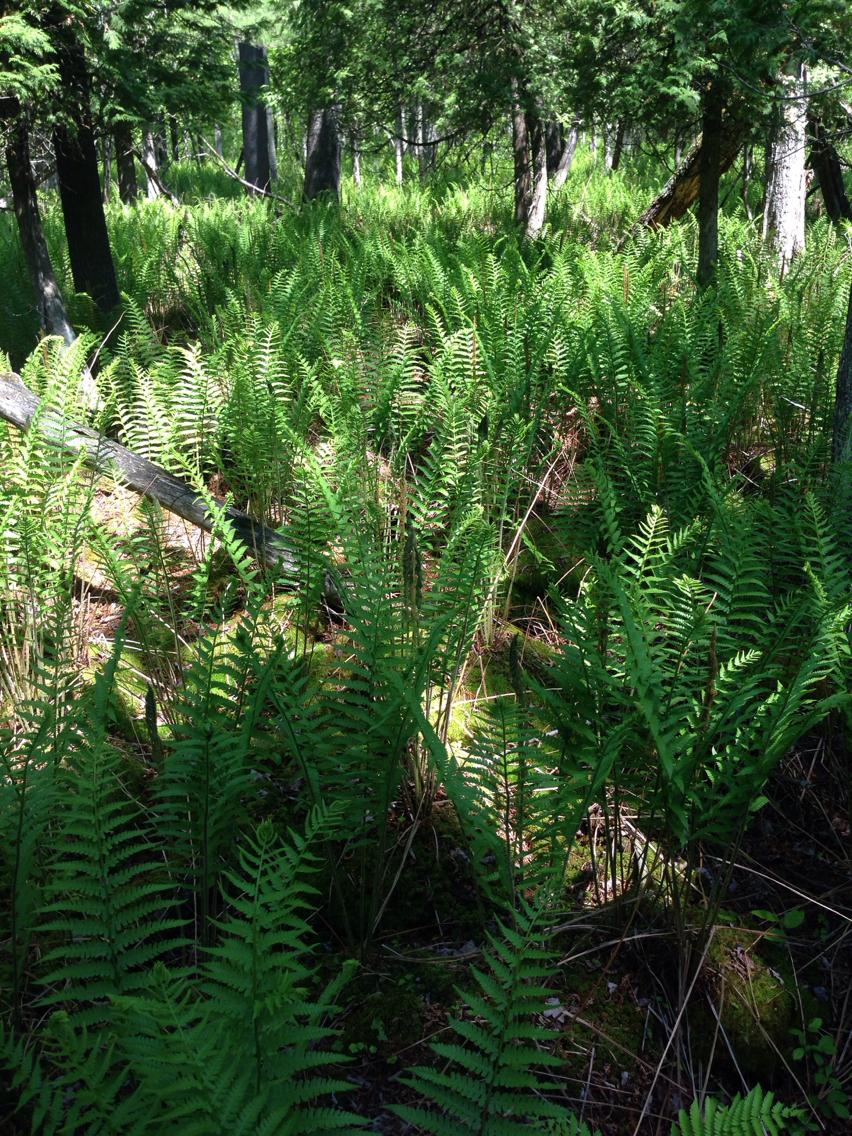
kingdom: Plantae
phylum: Tracheophyta
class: Polypodiopsida
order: Osmundales
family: Osmundaceae
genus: Osmundastrum
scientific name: Osmundastrum cinnamomeum
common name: Cinnamon fern
